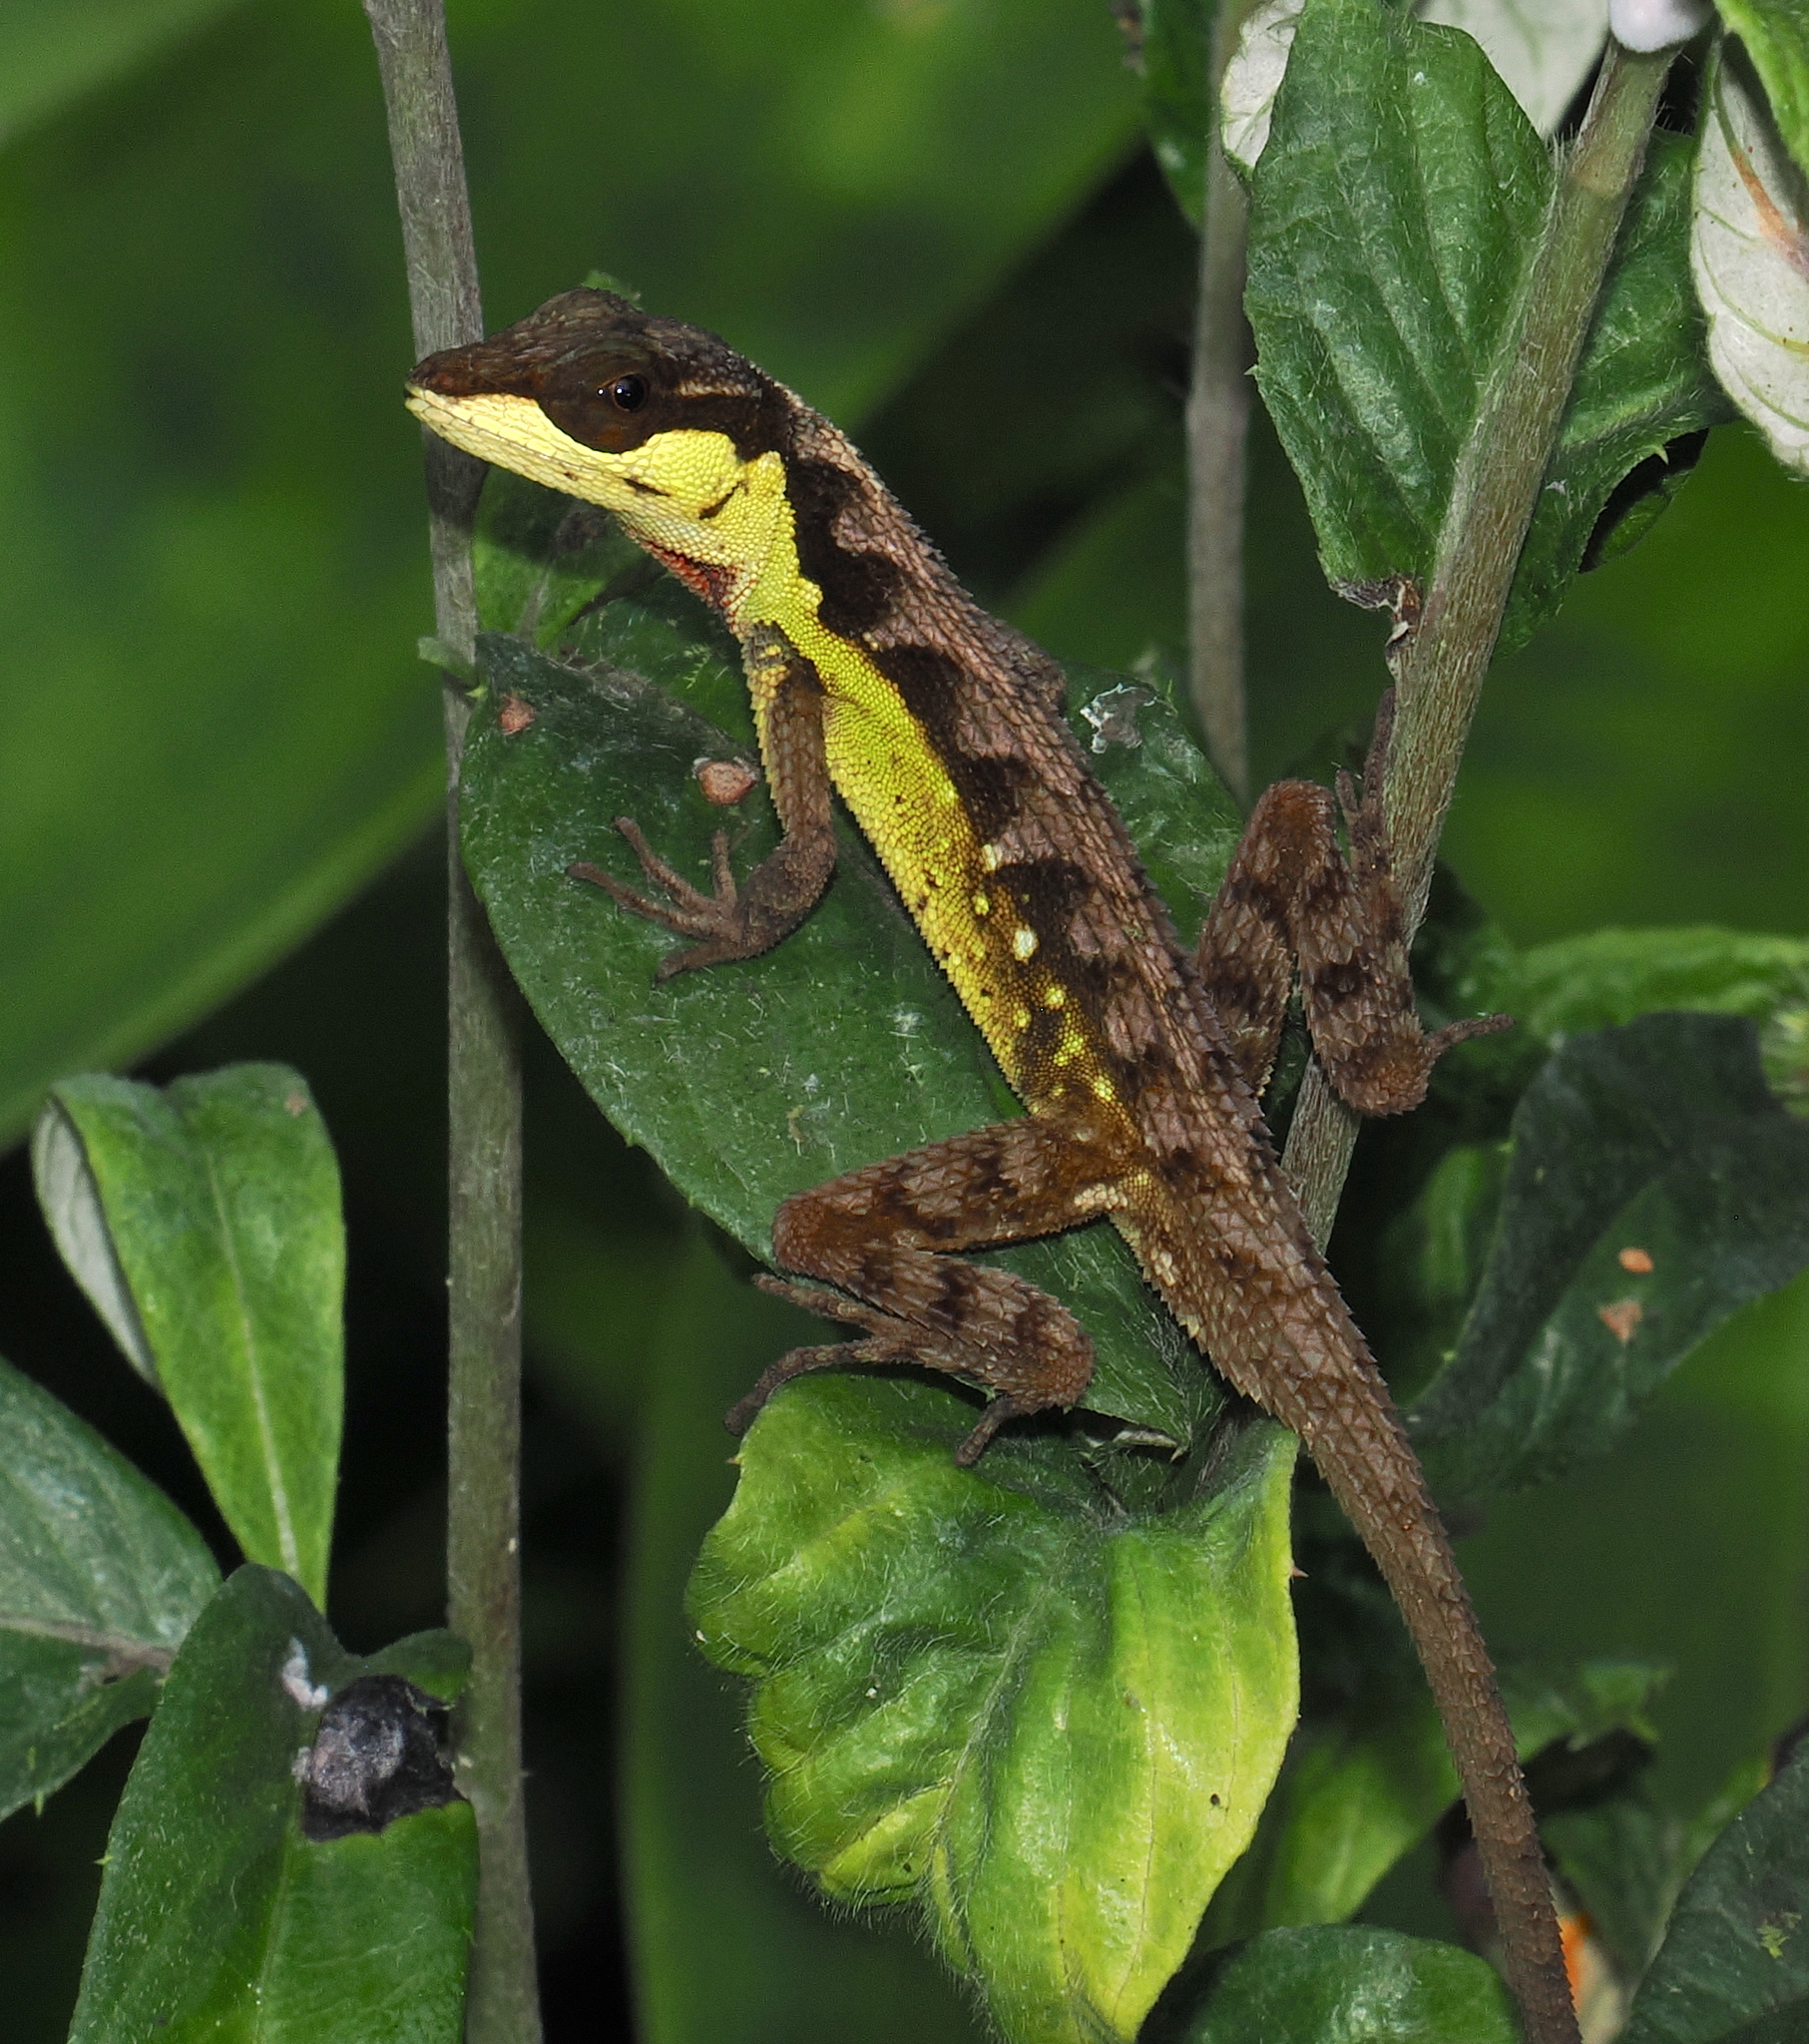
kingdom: Animalia
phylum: Chordata
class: Squamata
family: Dactyloidae
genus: Anolis
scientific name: Anolis notopholis
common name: Scalyback anole
